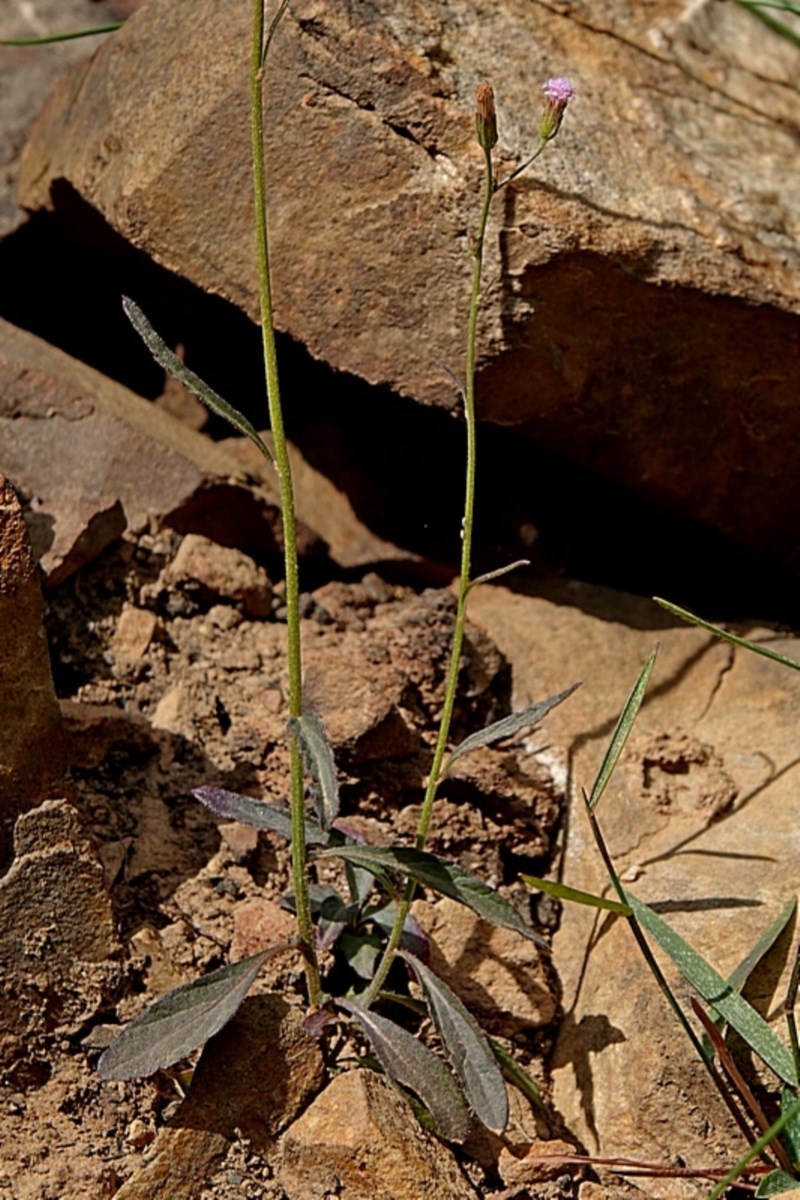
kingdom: Plantae
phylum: Tracheophyta
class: Magnoliopsida
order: Asterales
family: Asteraceae
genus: Cyanthillium
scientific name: Cyanthillium cinereum
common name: Little ironweed
